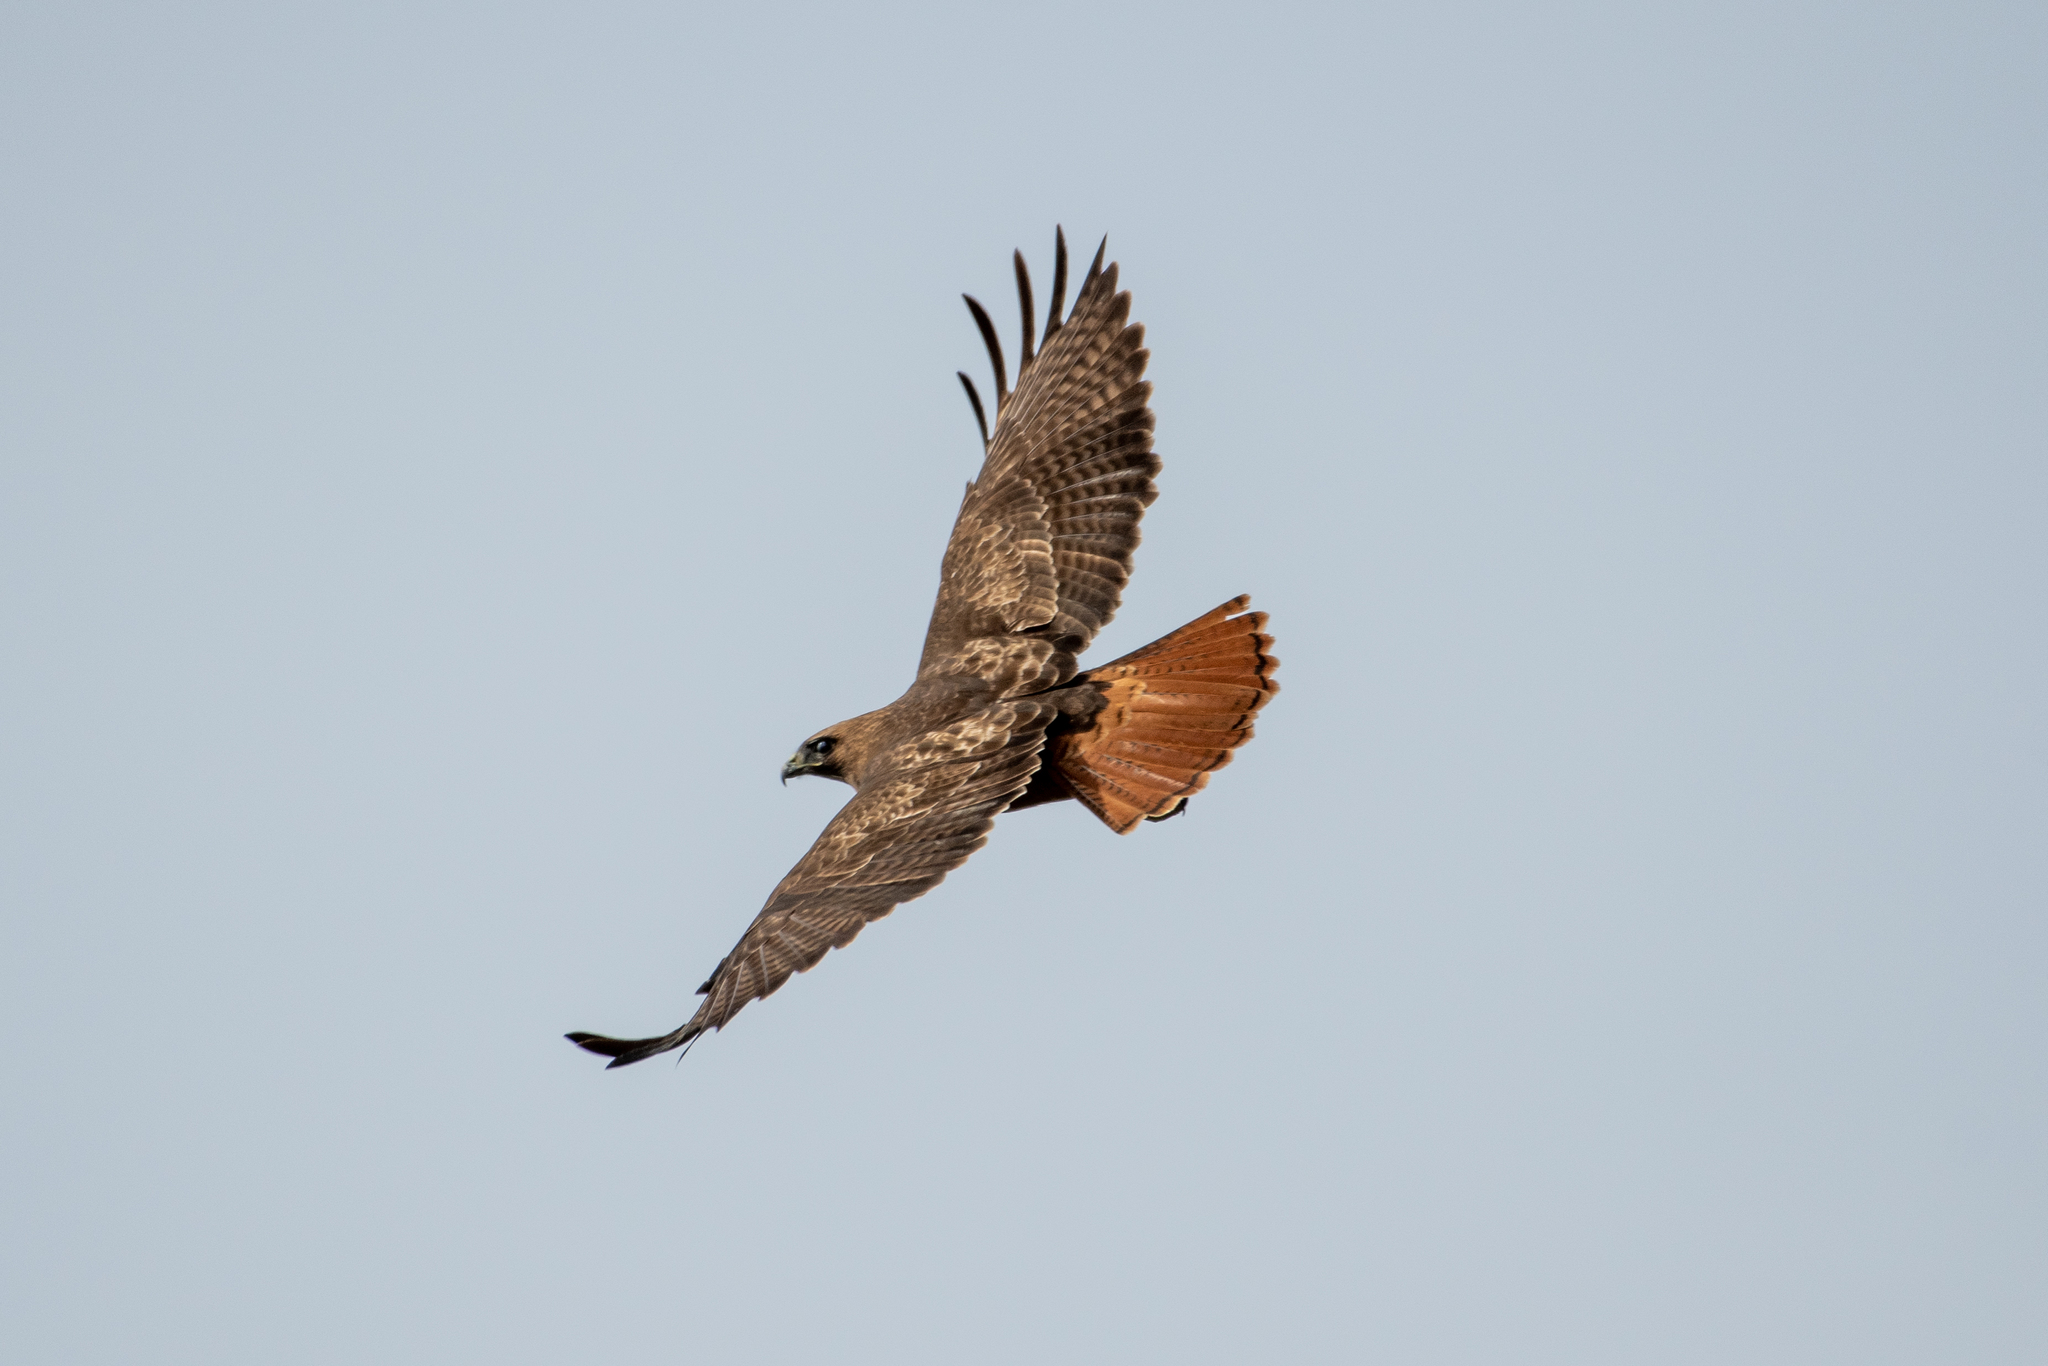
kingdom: Animalia
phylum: Chordata
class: Aves
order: Accipitriformes
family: Accipitridae
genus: Buteo
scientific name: Buteo jamaicensis
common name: Red-tailed hawk
